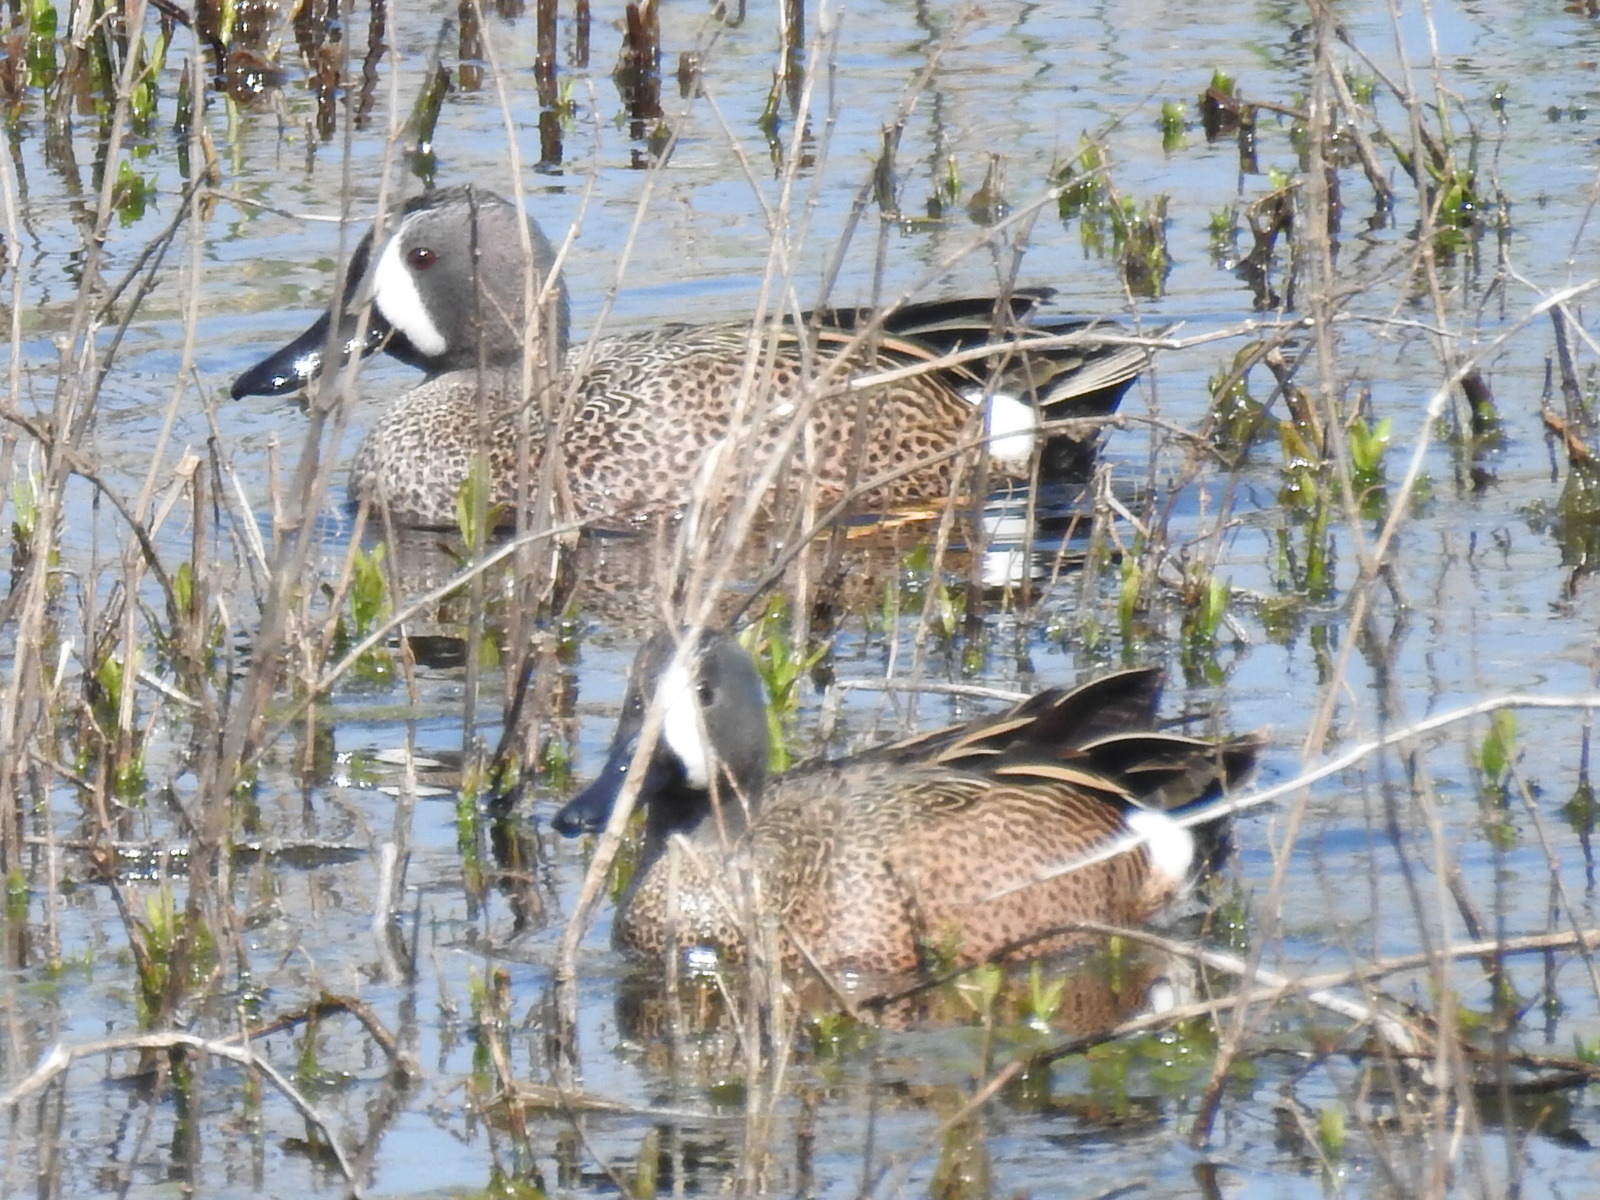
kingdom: Animalia
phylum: Chordata
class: Aves
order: Anseriformes
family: Anatidae
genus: Spatula
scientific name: Spatula discors
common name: Blue-winged teal
